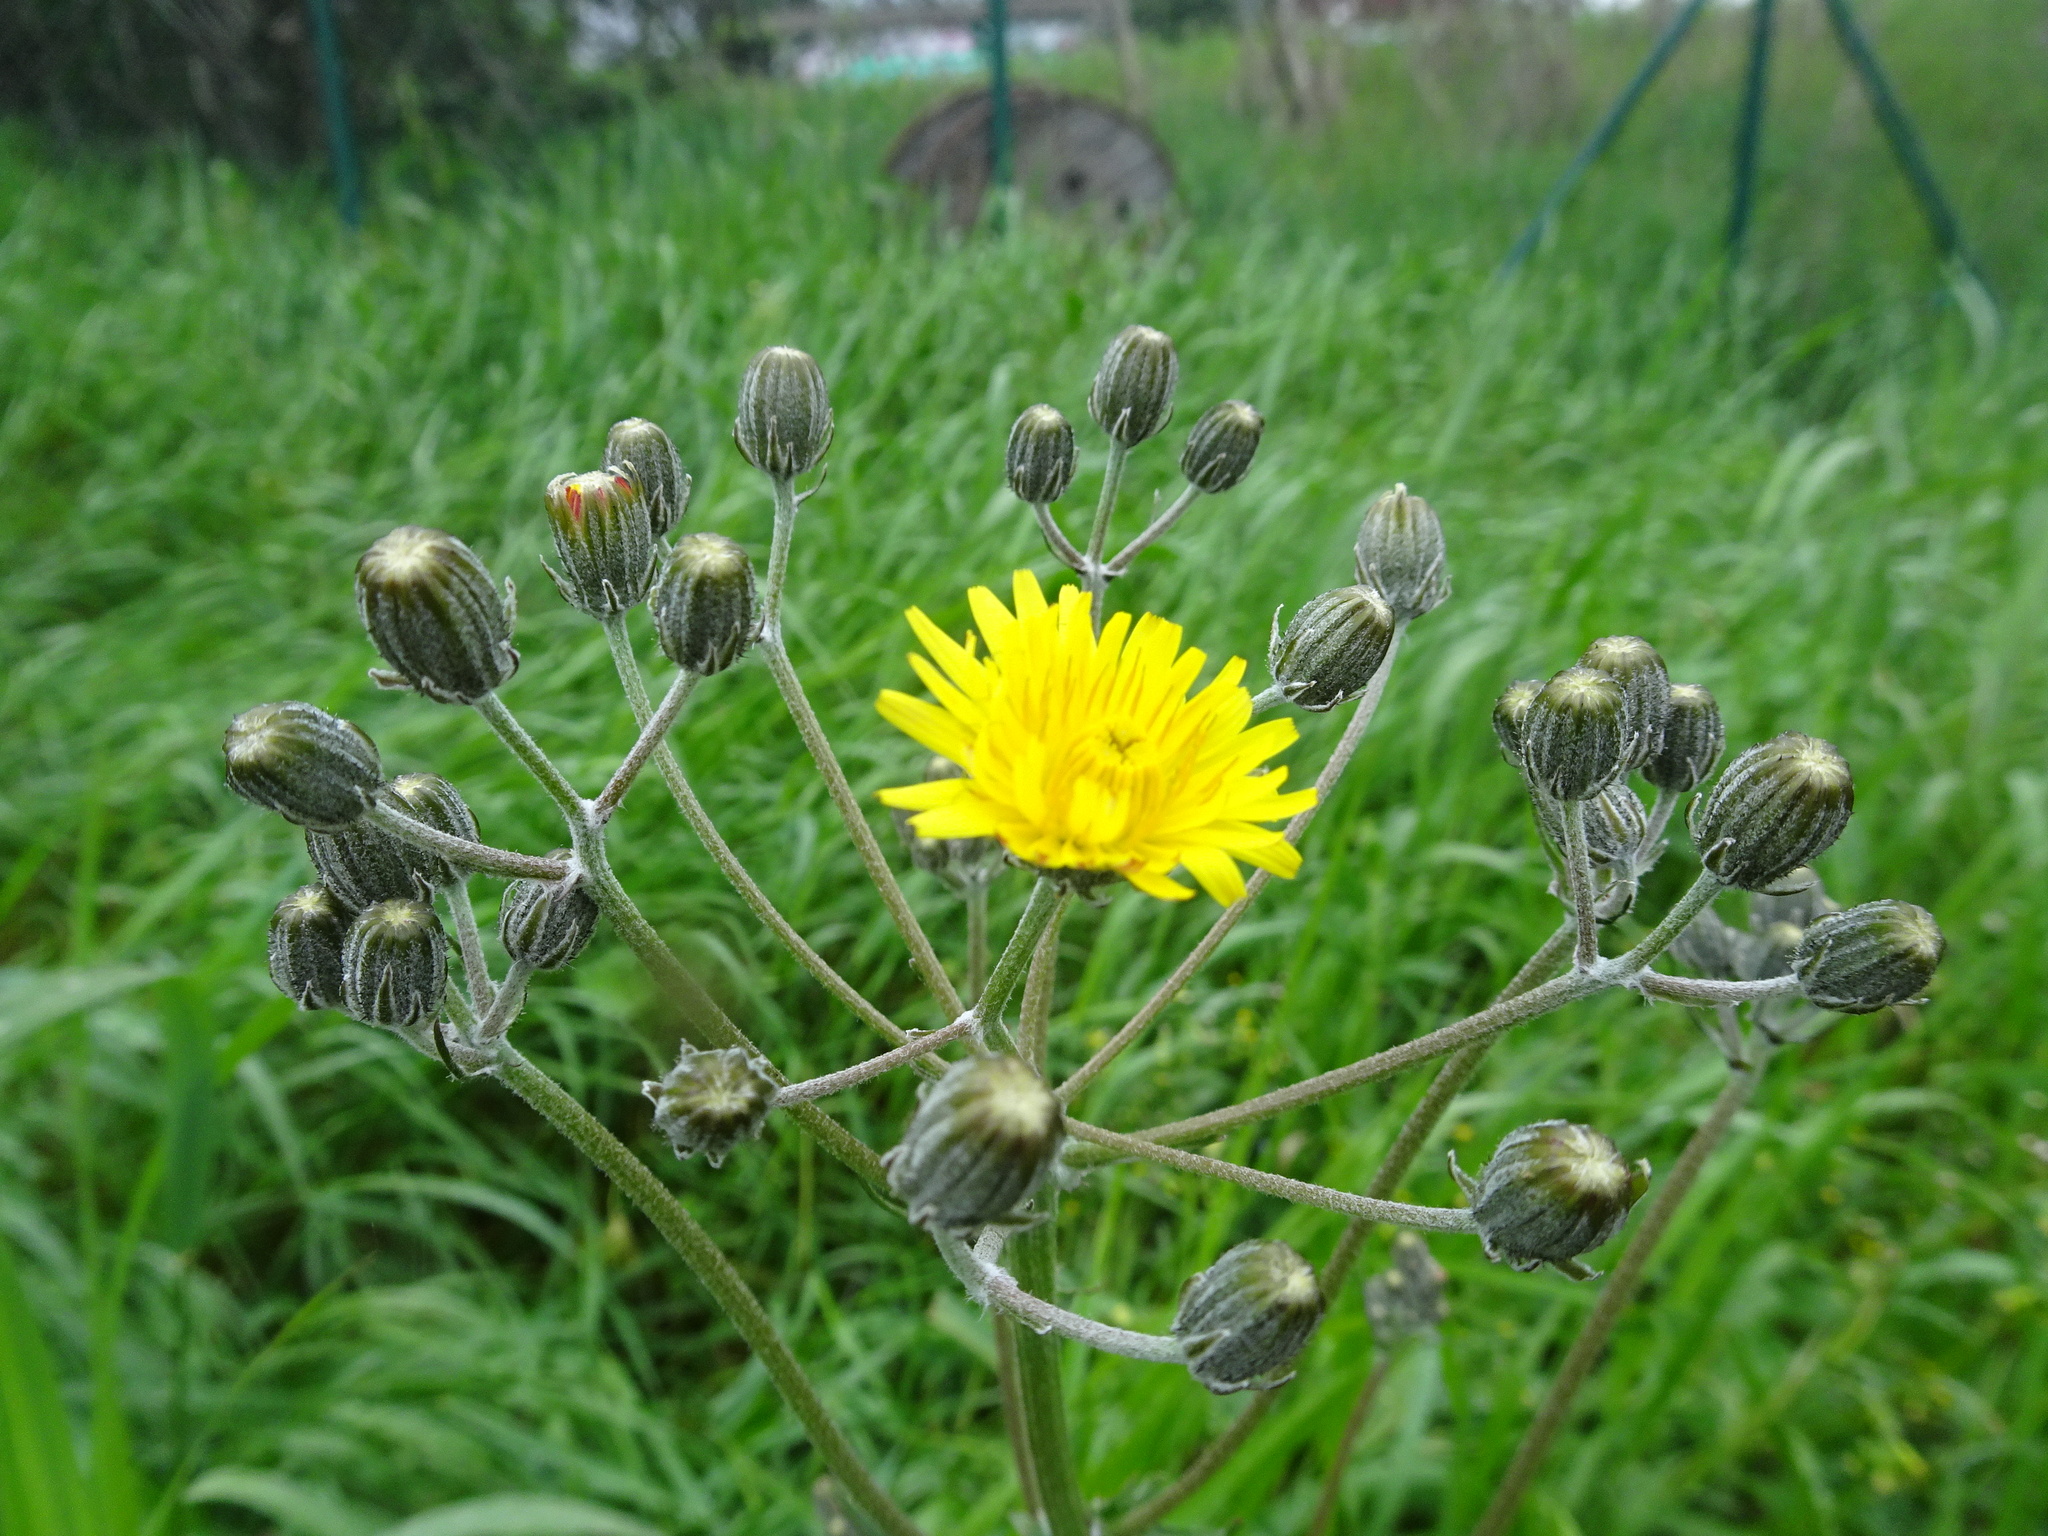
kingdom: Plantae
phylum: Tracheophyta
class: Magnoliopsida
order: Asterales
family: Asteraceae
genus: Crepis
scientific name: Crepis vesicaria
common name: Beaked hawksbeard
